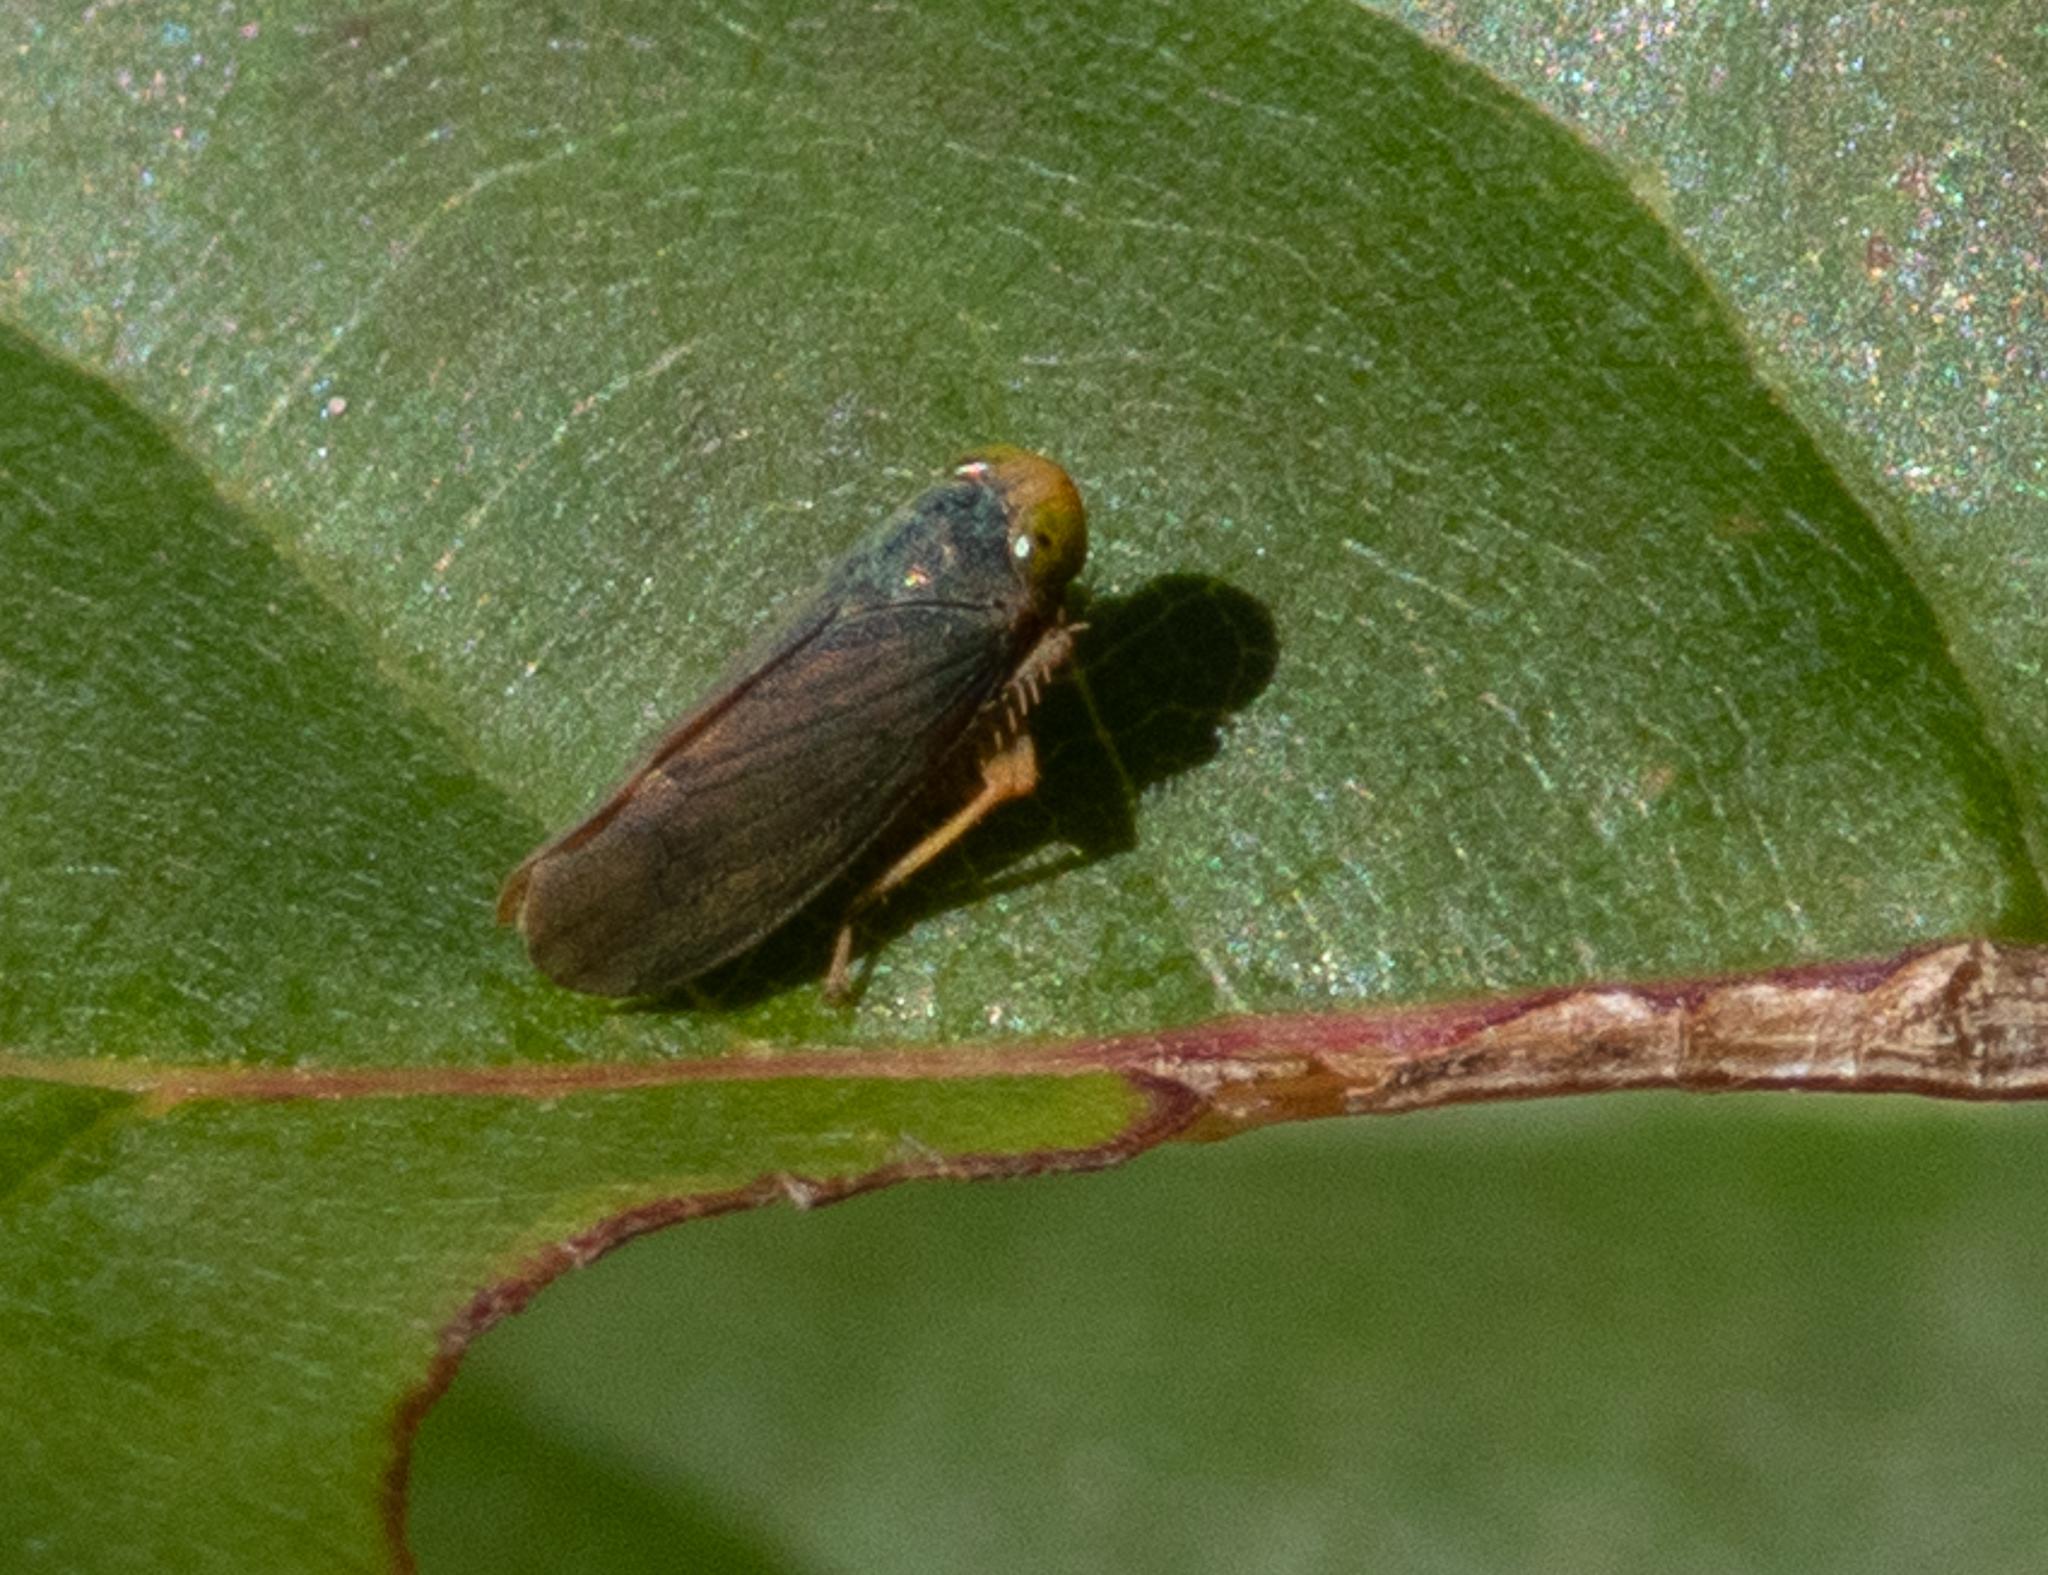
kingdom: Animalia
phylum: Arthropoda
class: Insecta
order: Hemiptera
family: Cicadellidae
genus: Jikradia
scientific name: Jikradia olitoria
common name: Coppery leafhopper
